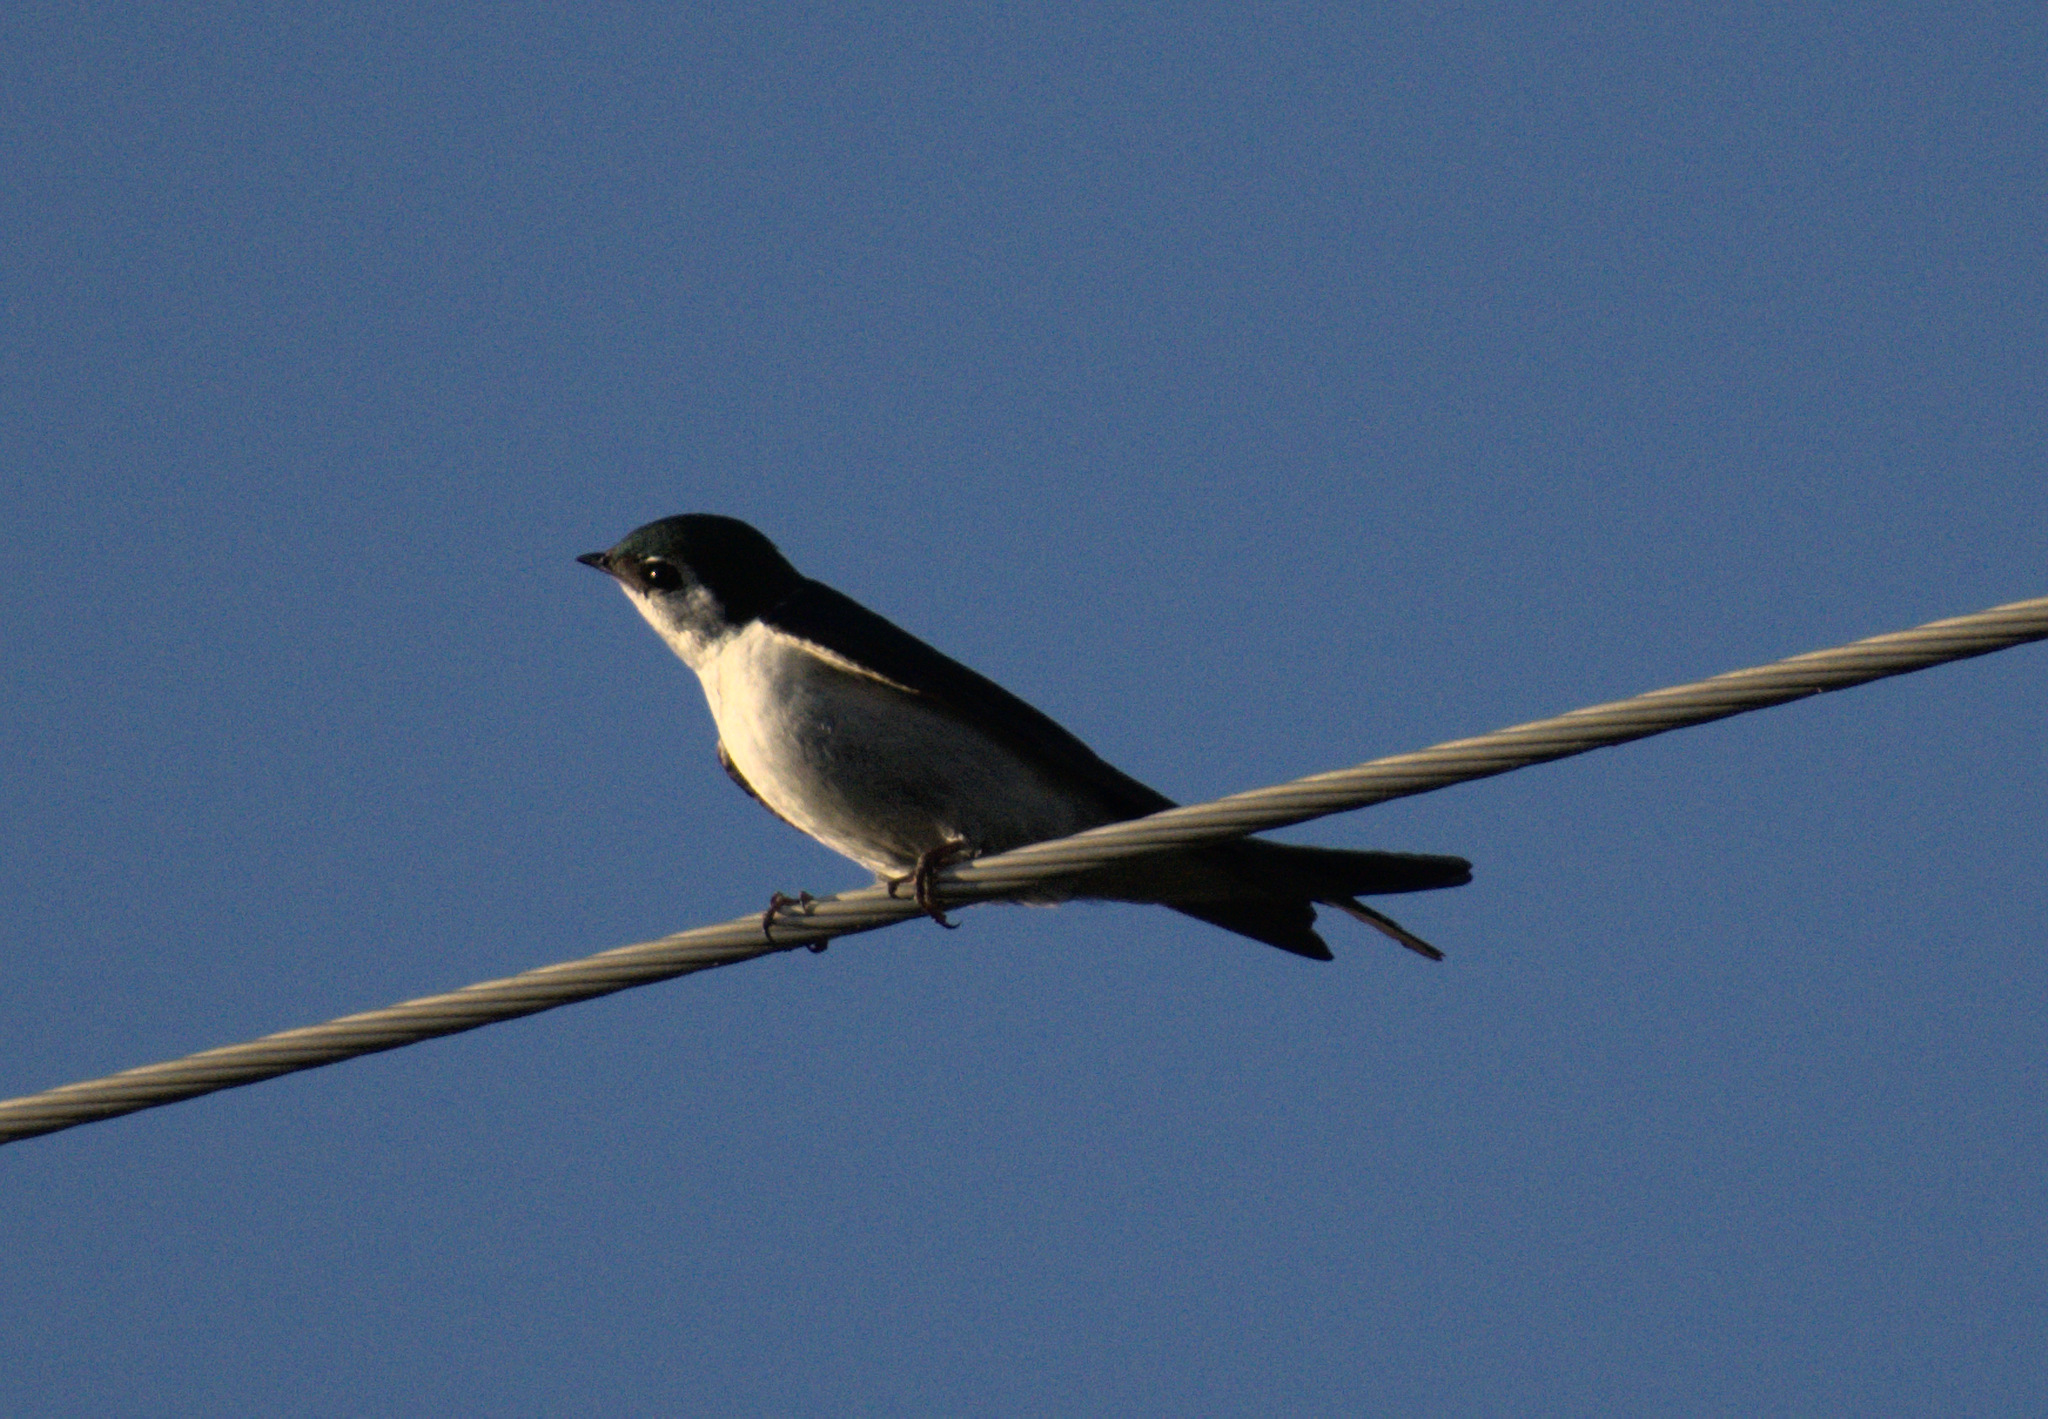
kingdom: Animalia
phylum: Chordata
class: Aves
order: Passeriformes
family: Hirundinidae
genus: Tachycineta
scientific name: Tachycineta thalassina
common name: Violet-green swallow
